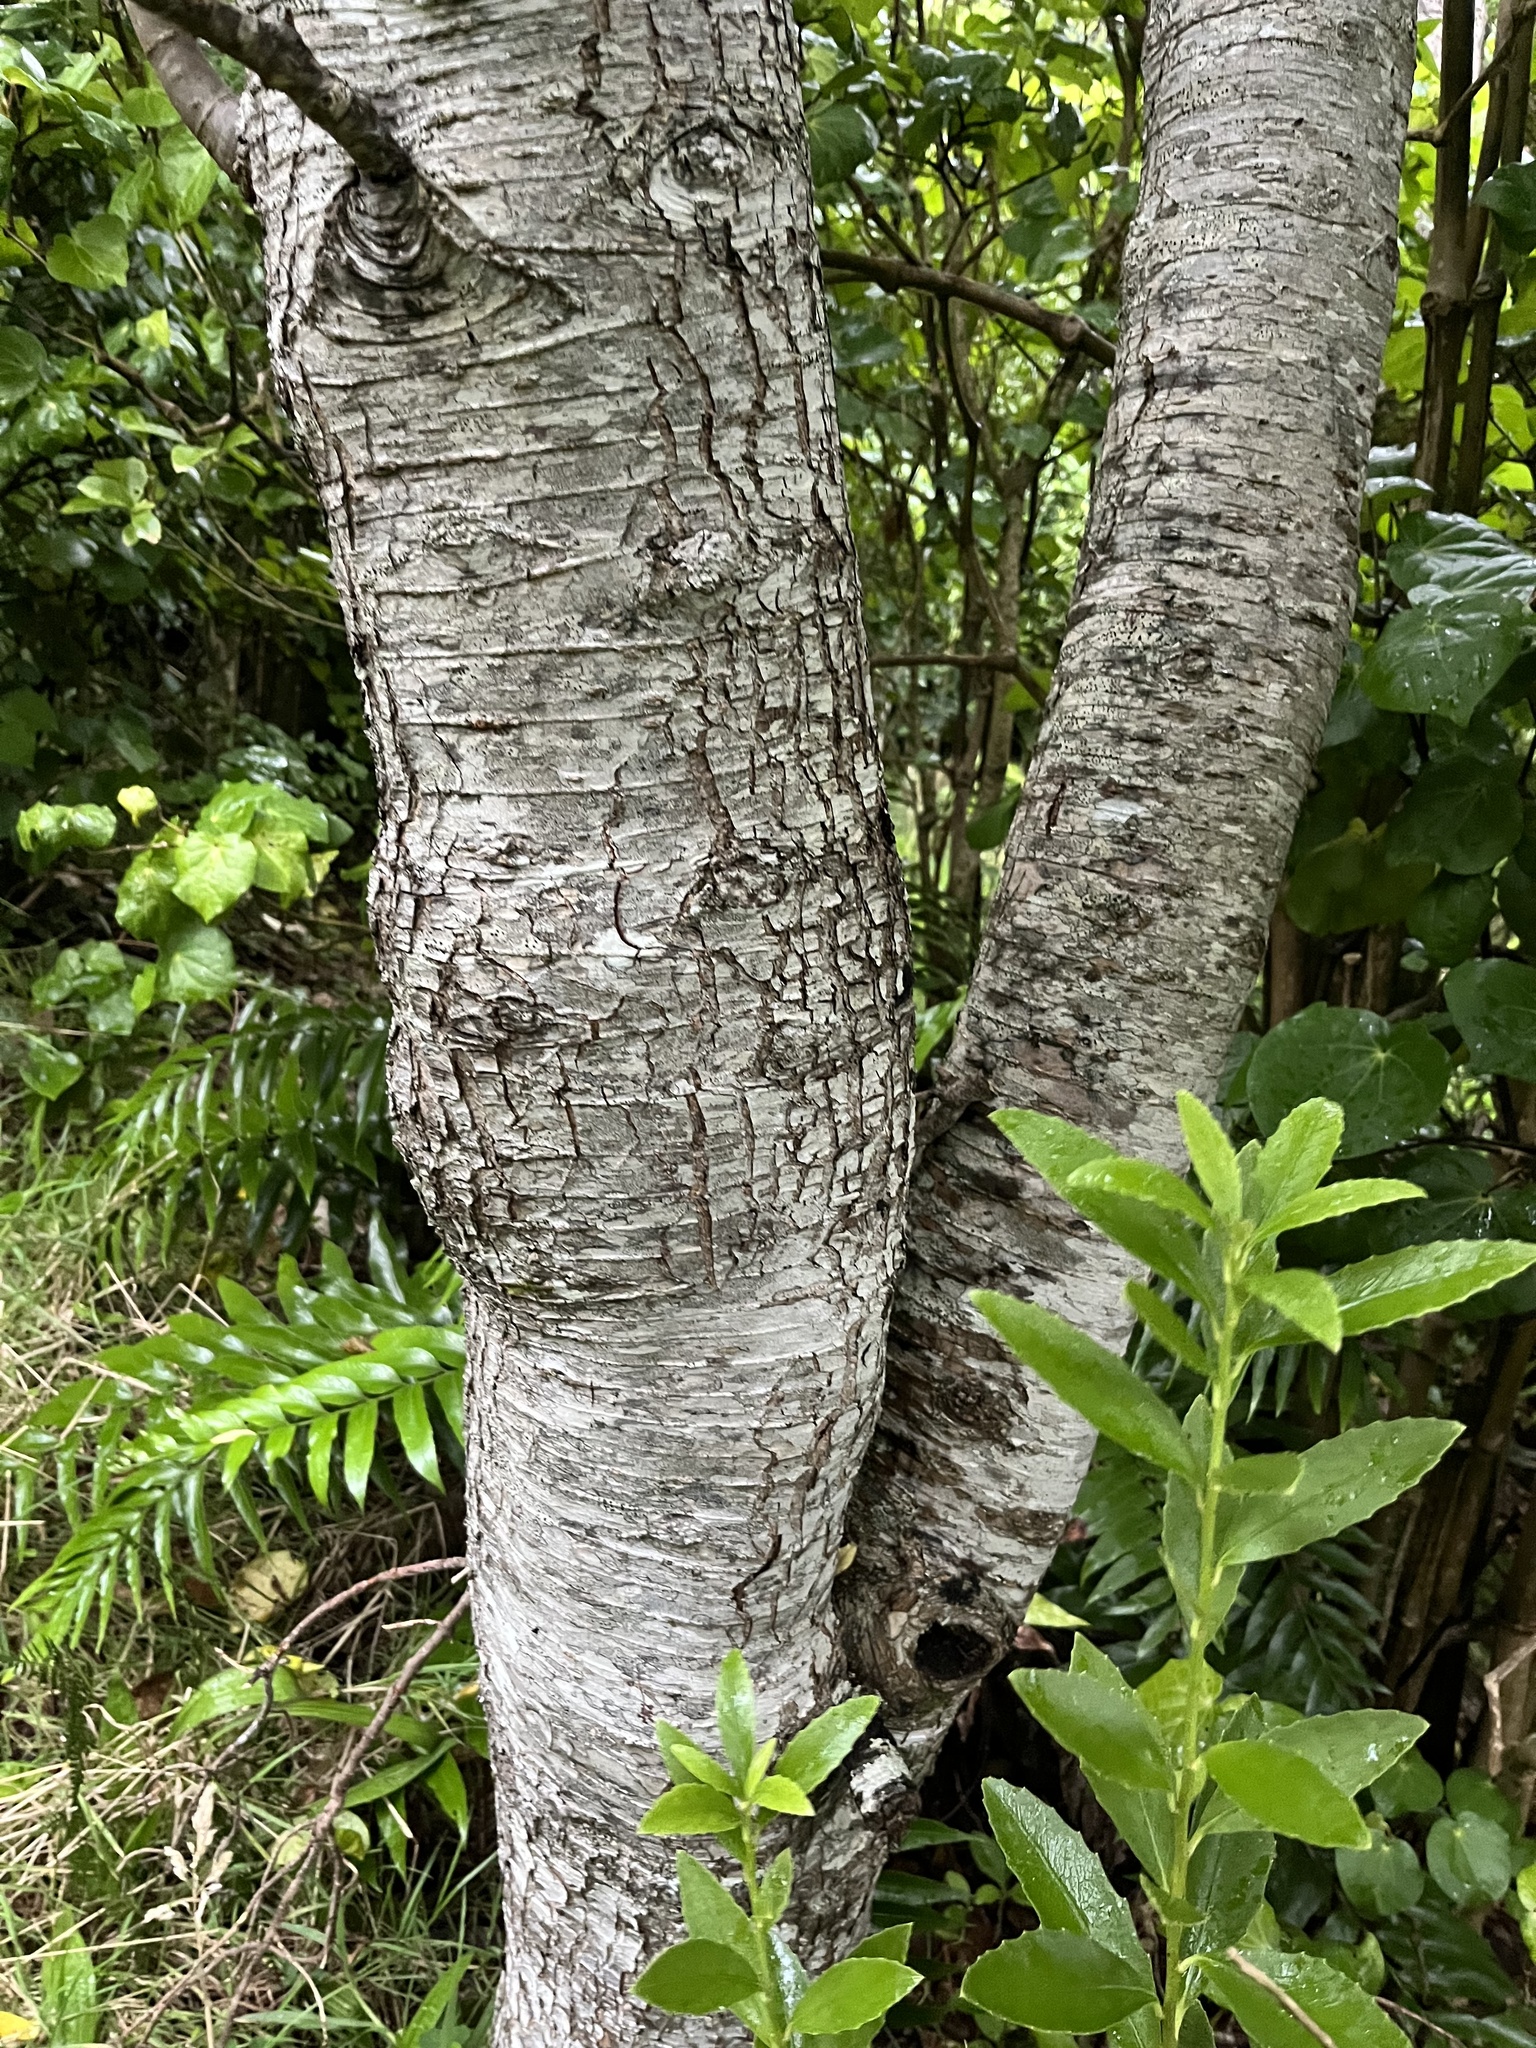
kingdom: Plantae
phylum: Tracheophyta
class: Magnoliopsida
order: Lamiales
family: Plantaginaceae
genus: Veronica
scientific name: Veronica barkeri
